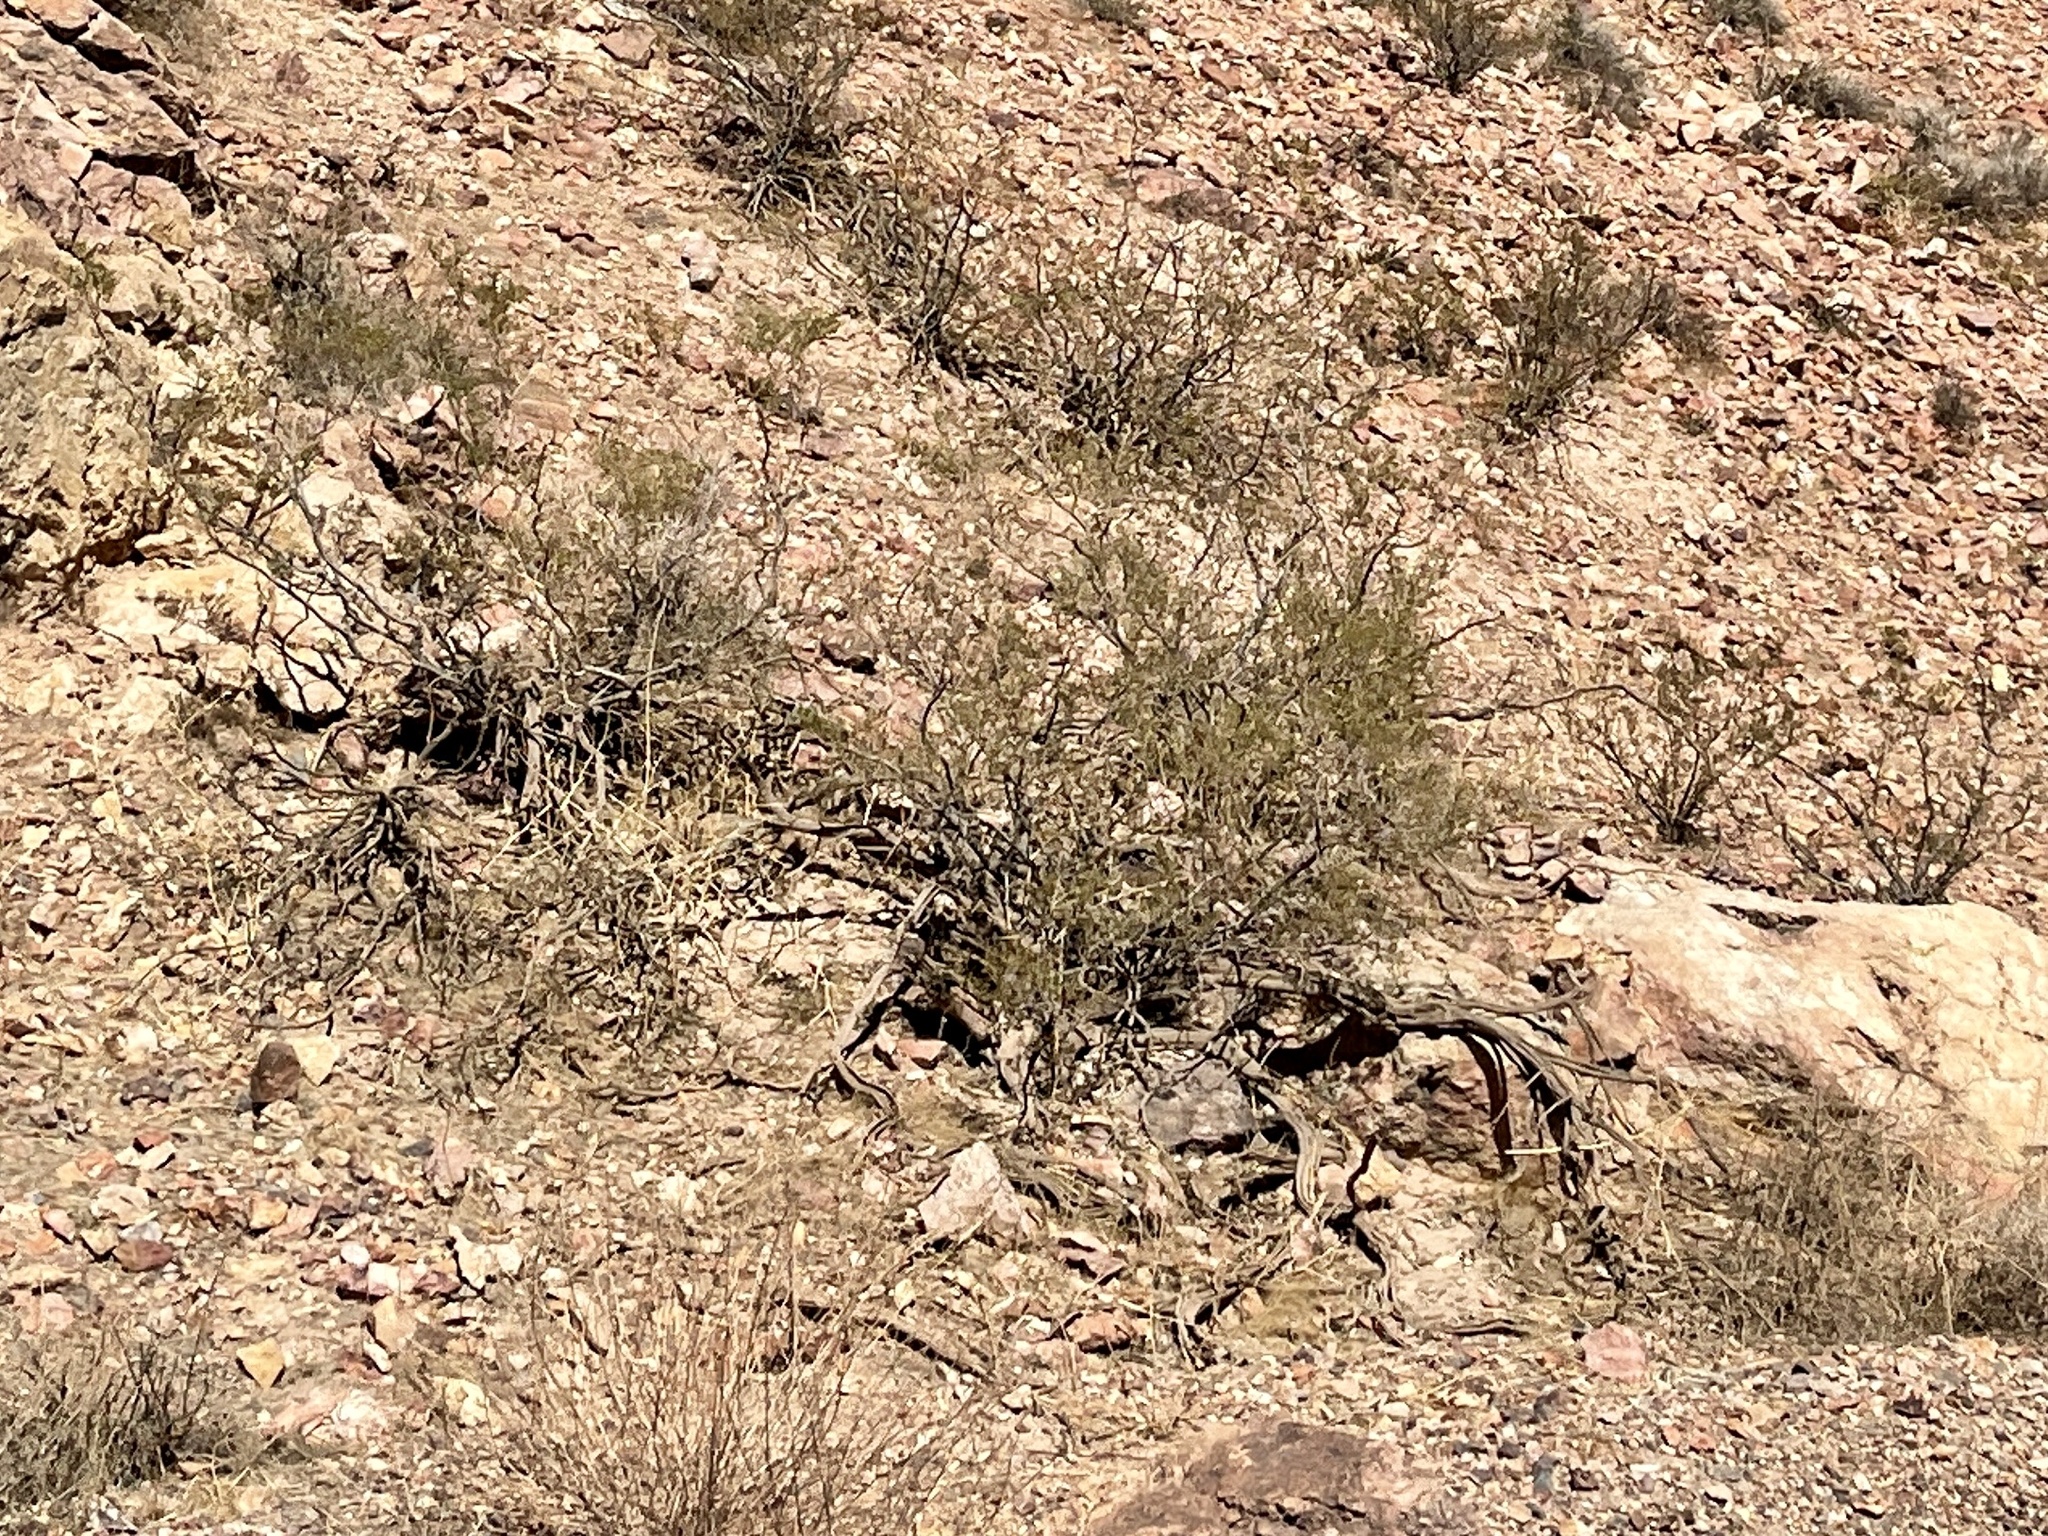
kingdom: Plantae
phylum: Tracheophyta
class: Magnoliopsida
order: Zygophyllales
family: Zygophyllaceae
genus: Larrea
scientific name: Larrea tridentata
